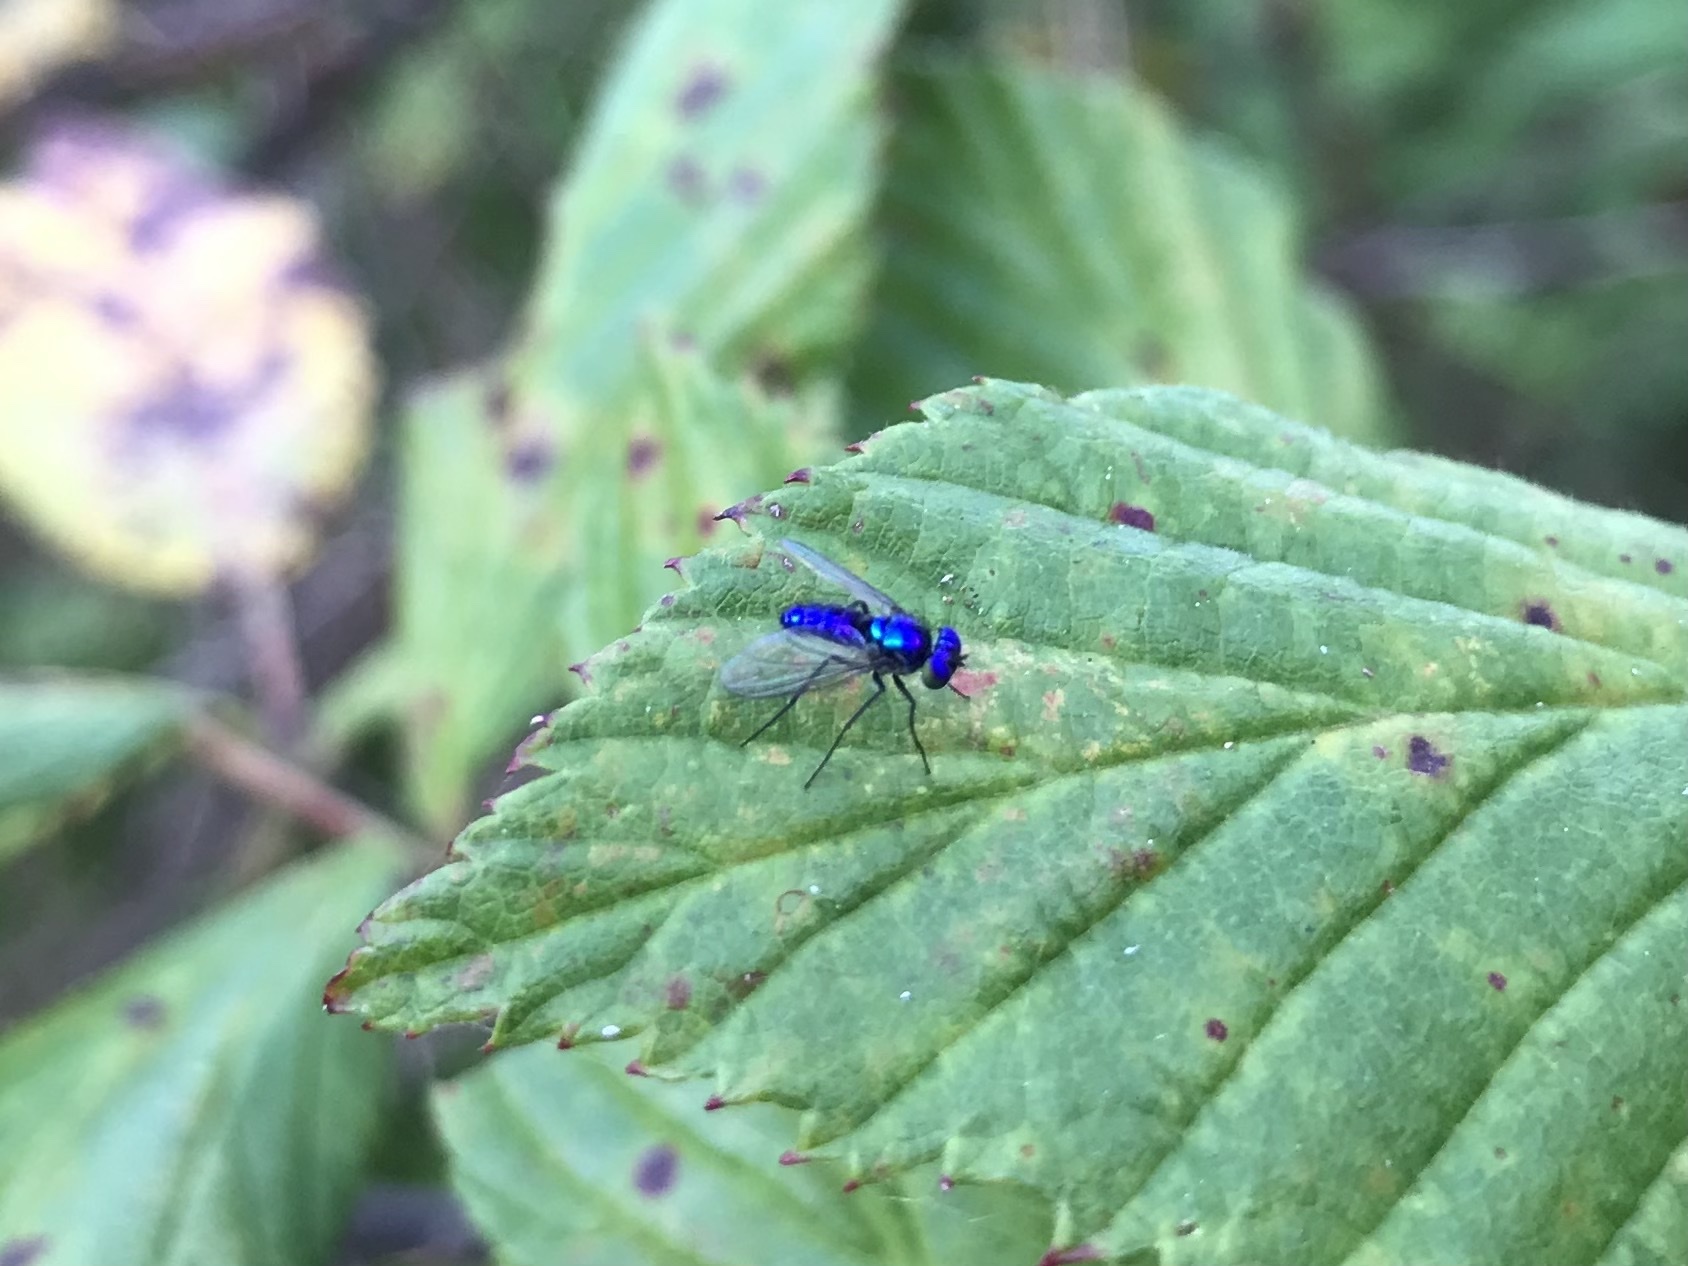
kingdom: Animalia
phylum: Arthropoda
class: Insecta
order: Diptera
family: Dolichopodidae
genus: Condylostylus
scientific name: Condylostylus mundus
